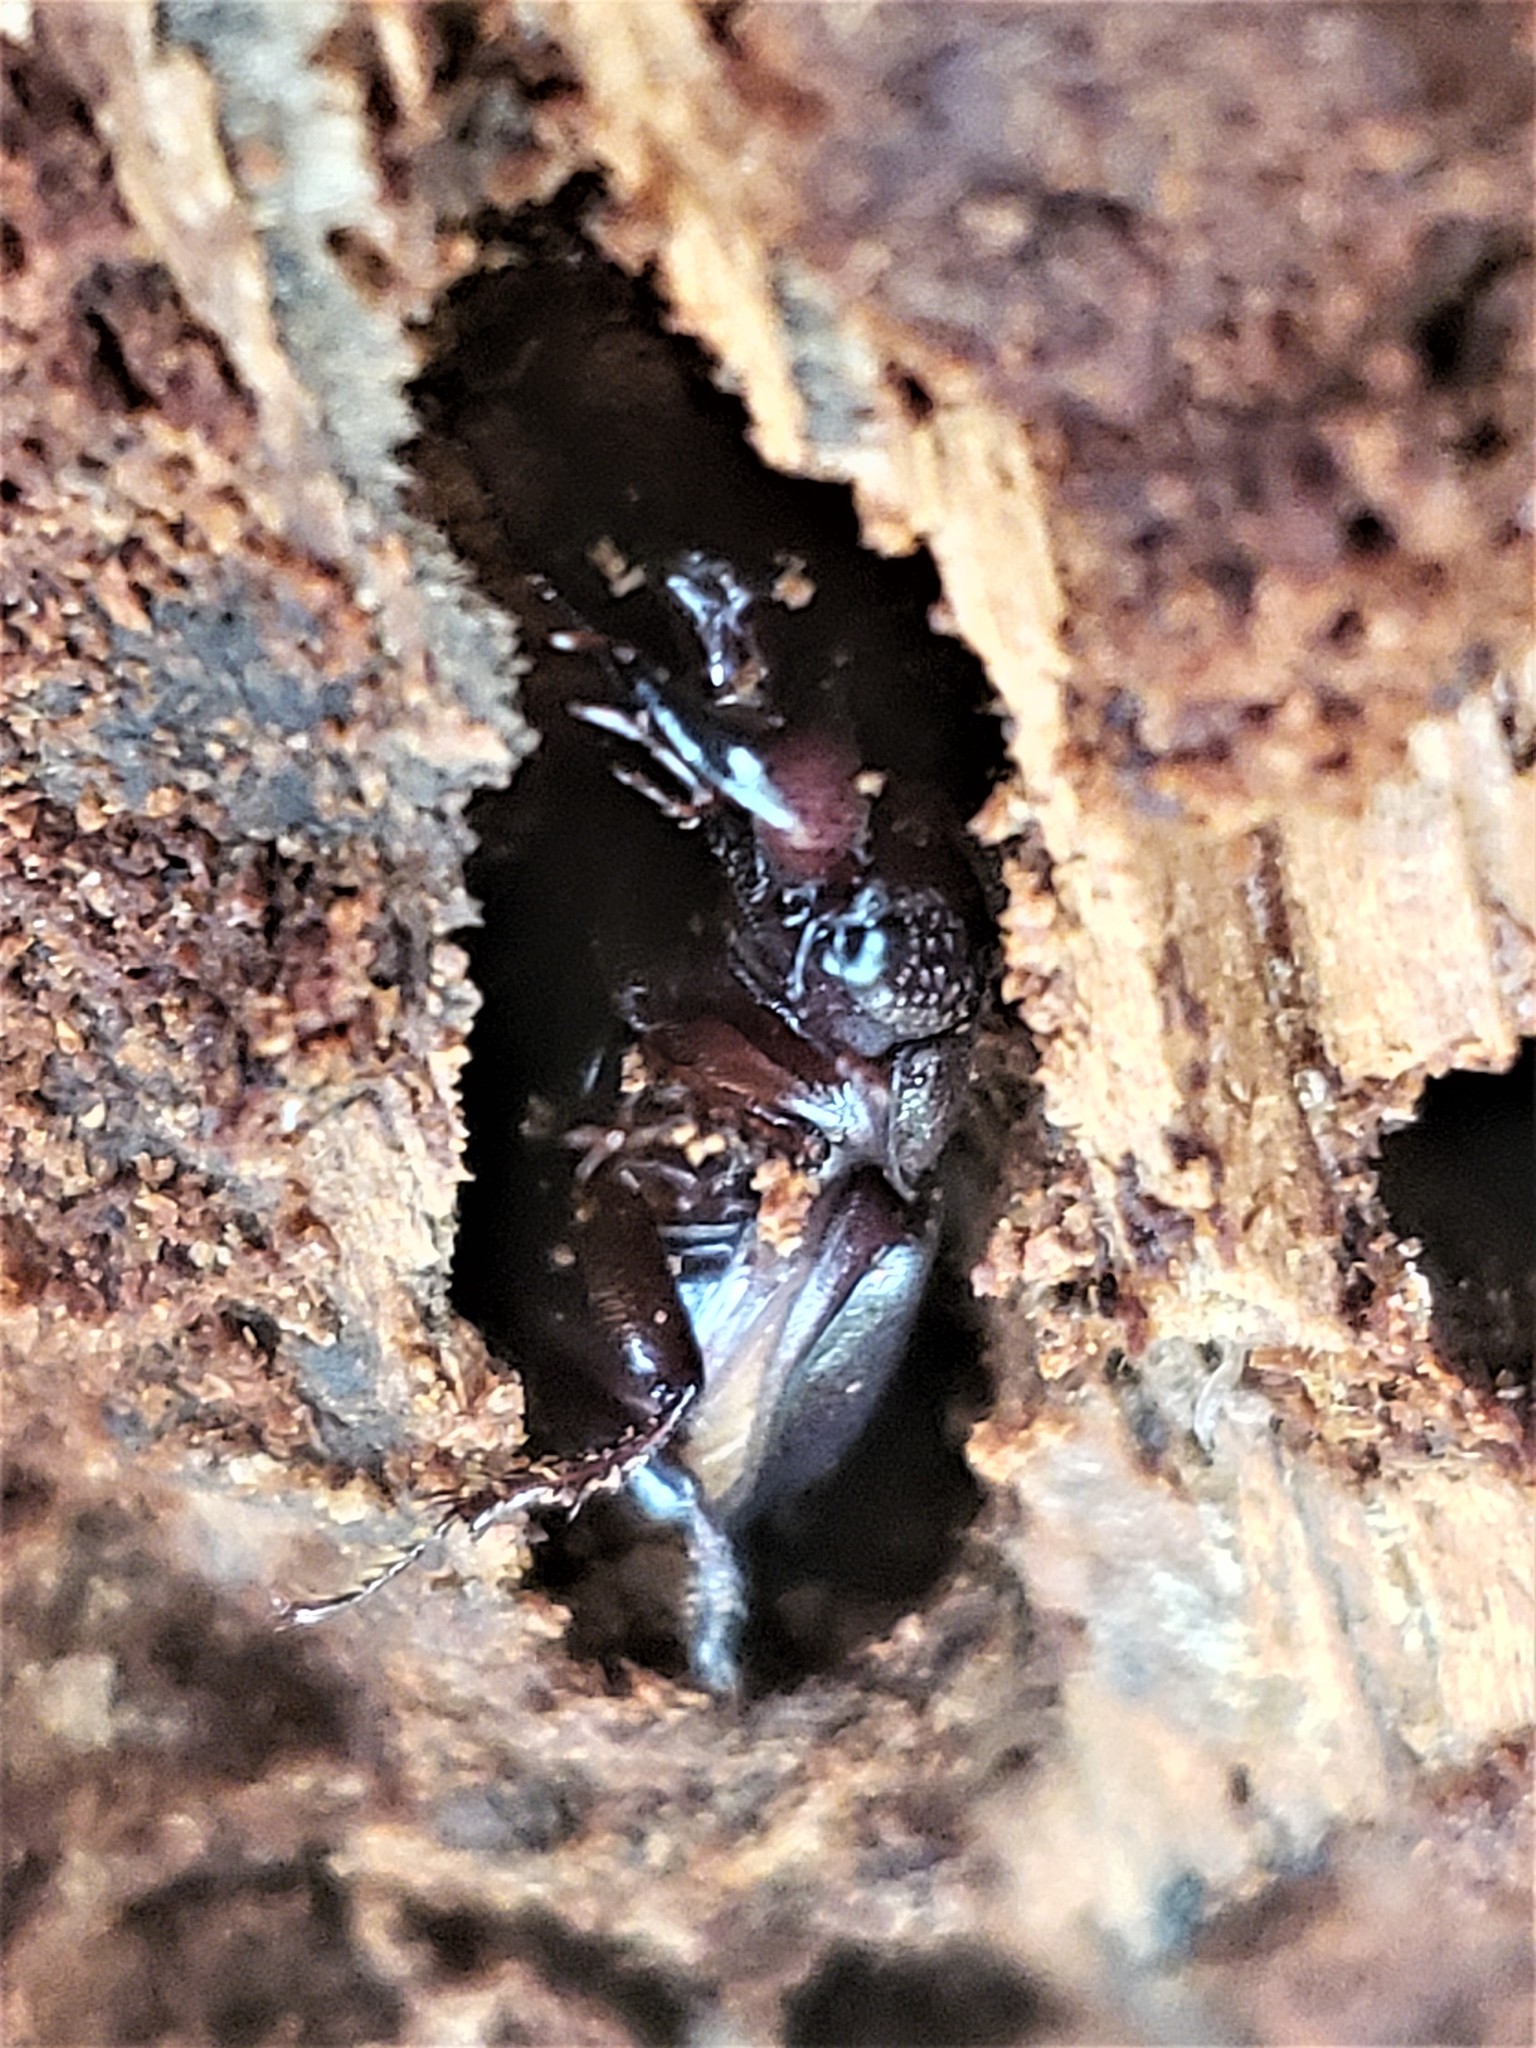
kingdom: Animalia
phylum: Arthropoda
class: Insecta
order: Coleoptera
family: Lucanidae
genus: Ceruchus
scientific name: Ceruchus piceus
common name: Red-rot decay stag beetle
